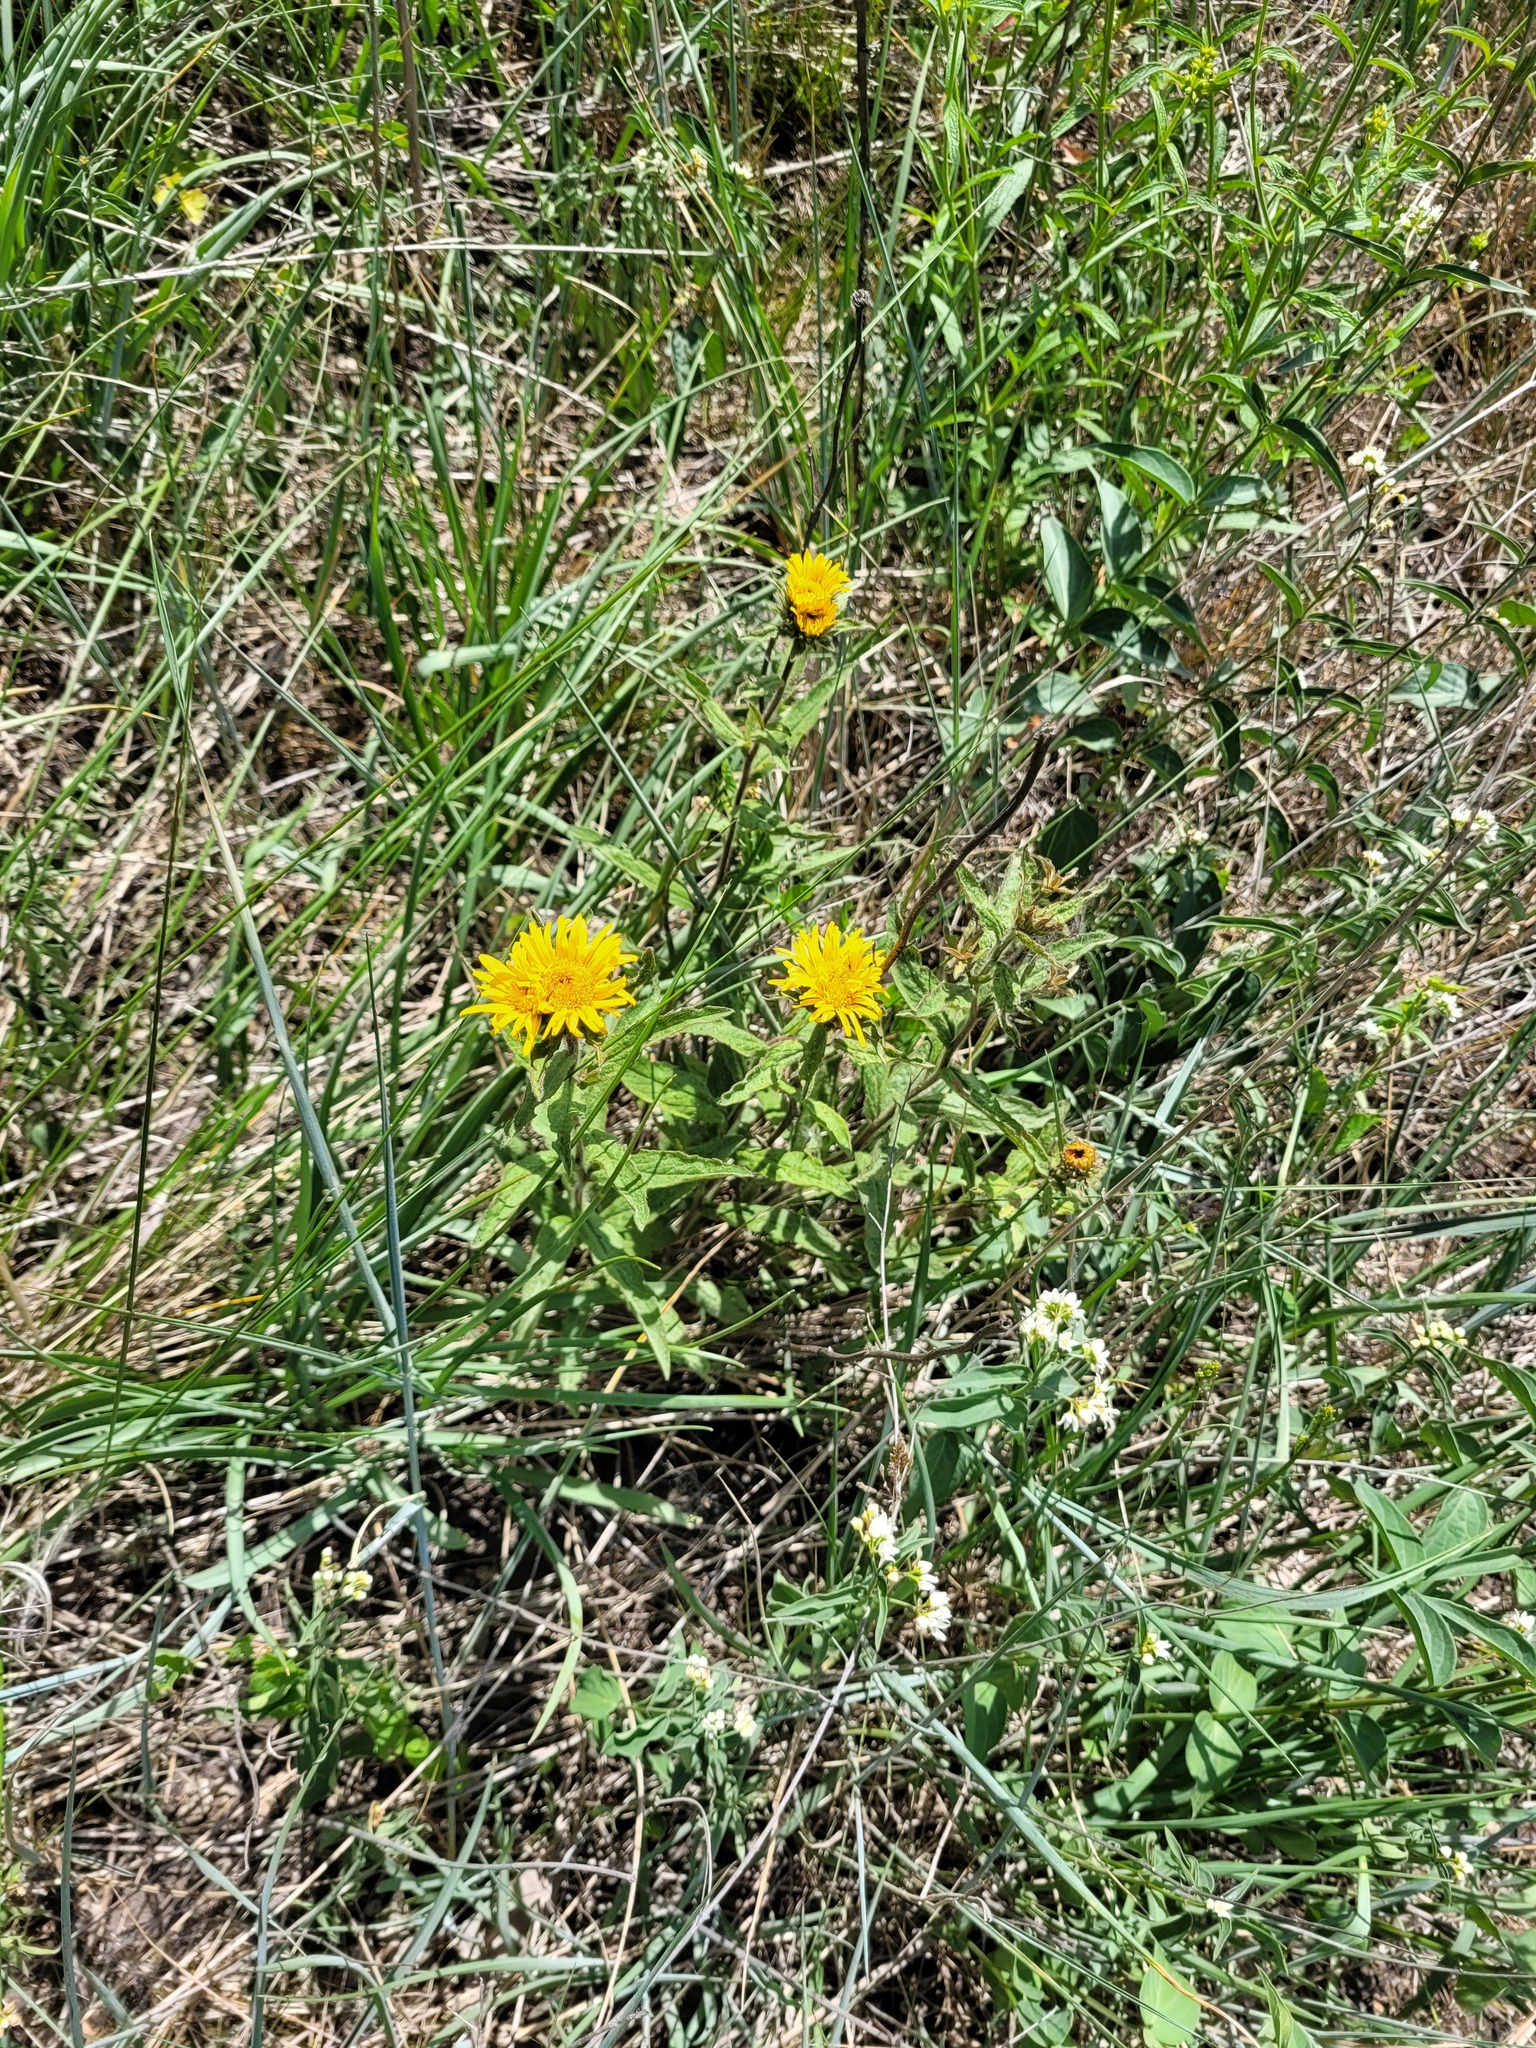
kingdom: Plantae
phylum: Tracheophyta
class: Magnoliopsida
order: Asterales
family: Asteraceae
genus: Pentanema
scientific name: Pentanema hirtum
